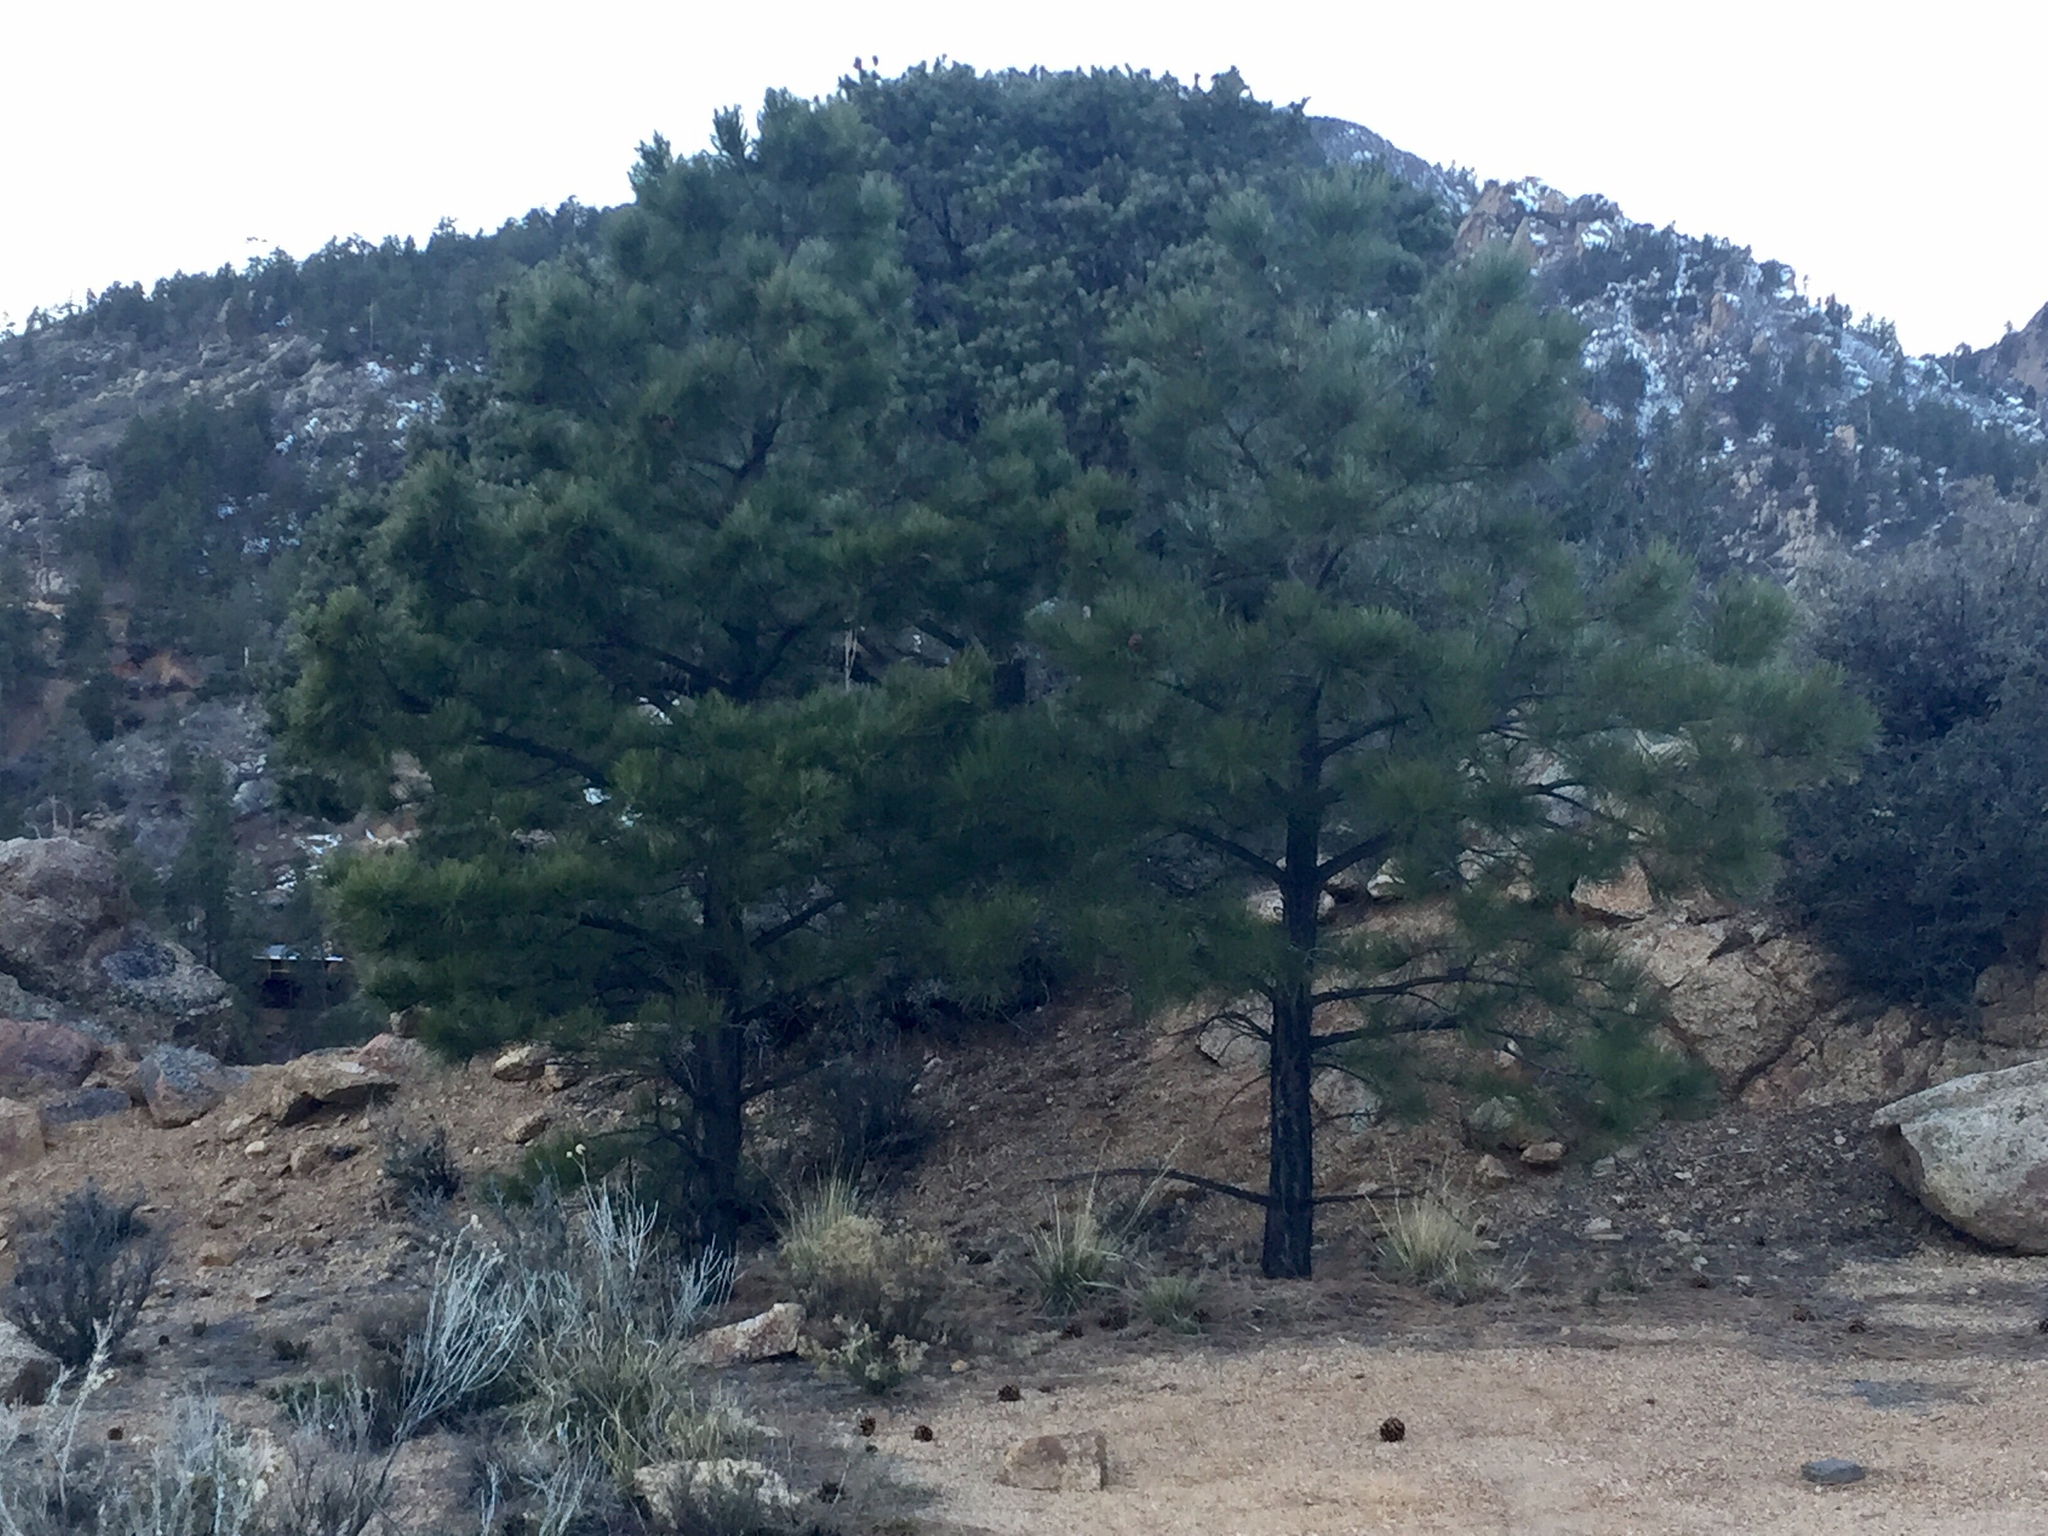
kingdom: Plantae
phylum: Tracheophyta
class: Pinopsida
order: Pinales
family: Pinaceae
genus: Pinus
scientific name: Pinus ponderosa
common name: Western yellow-pine
